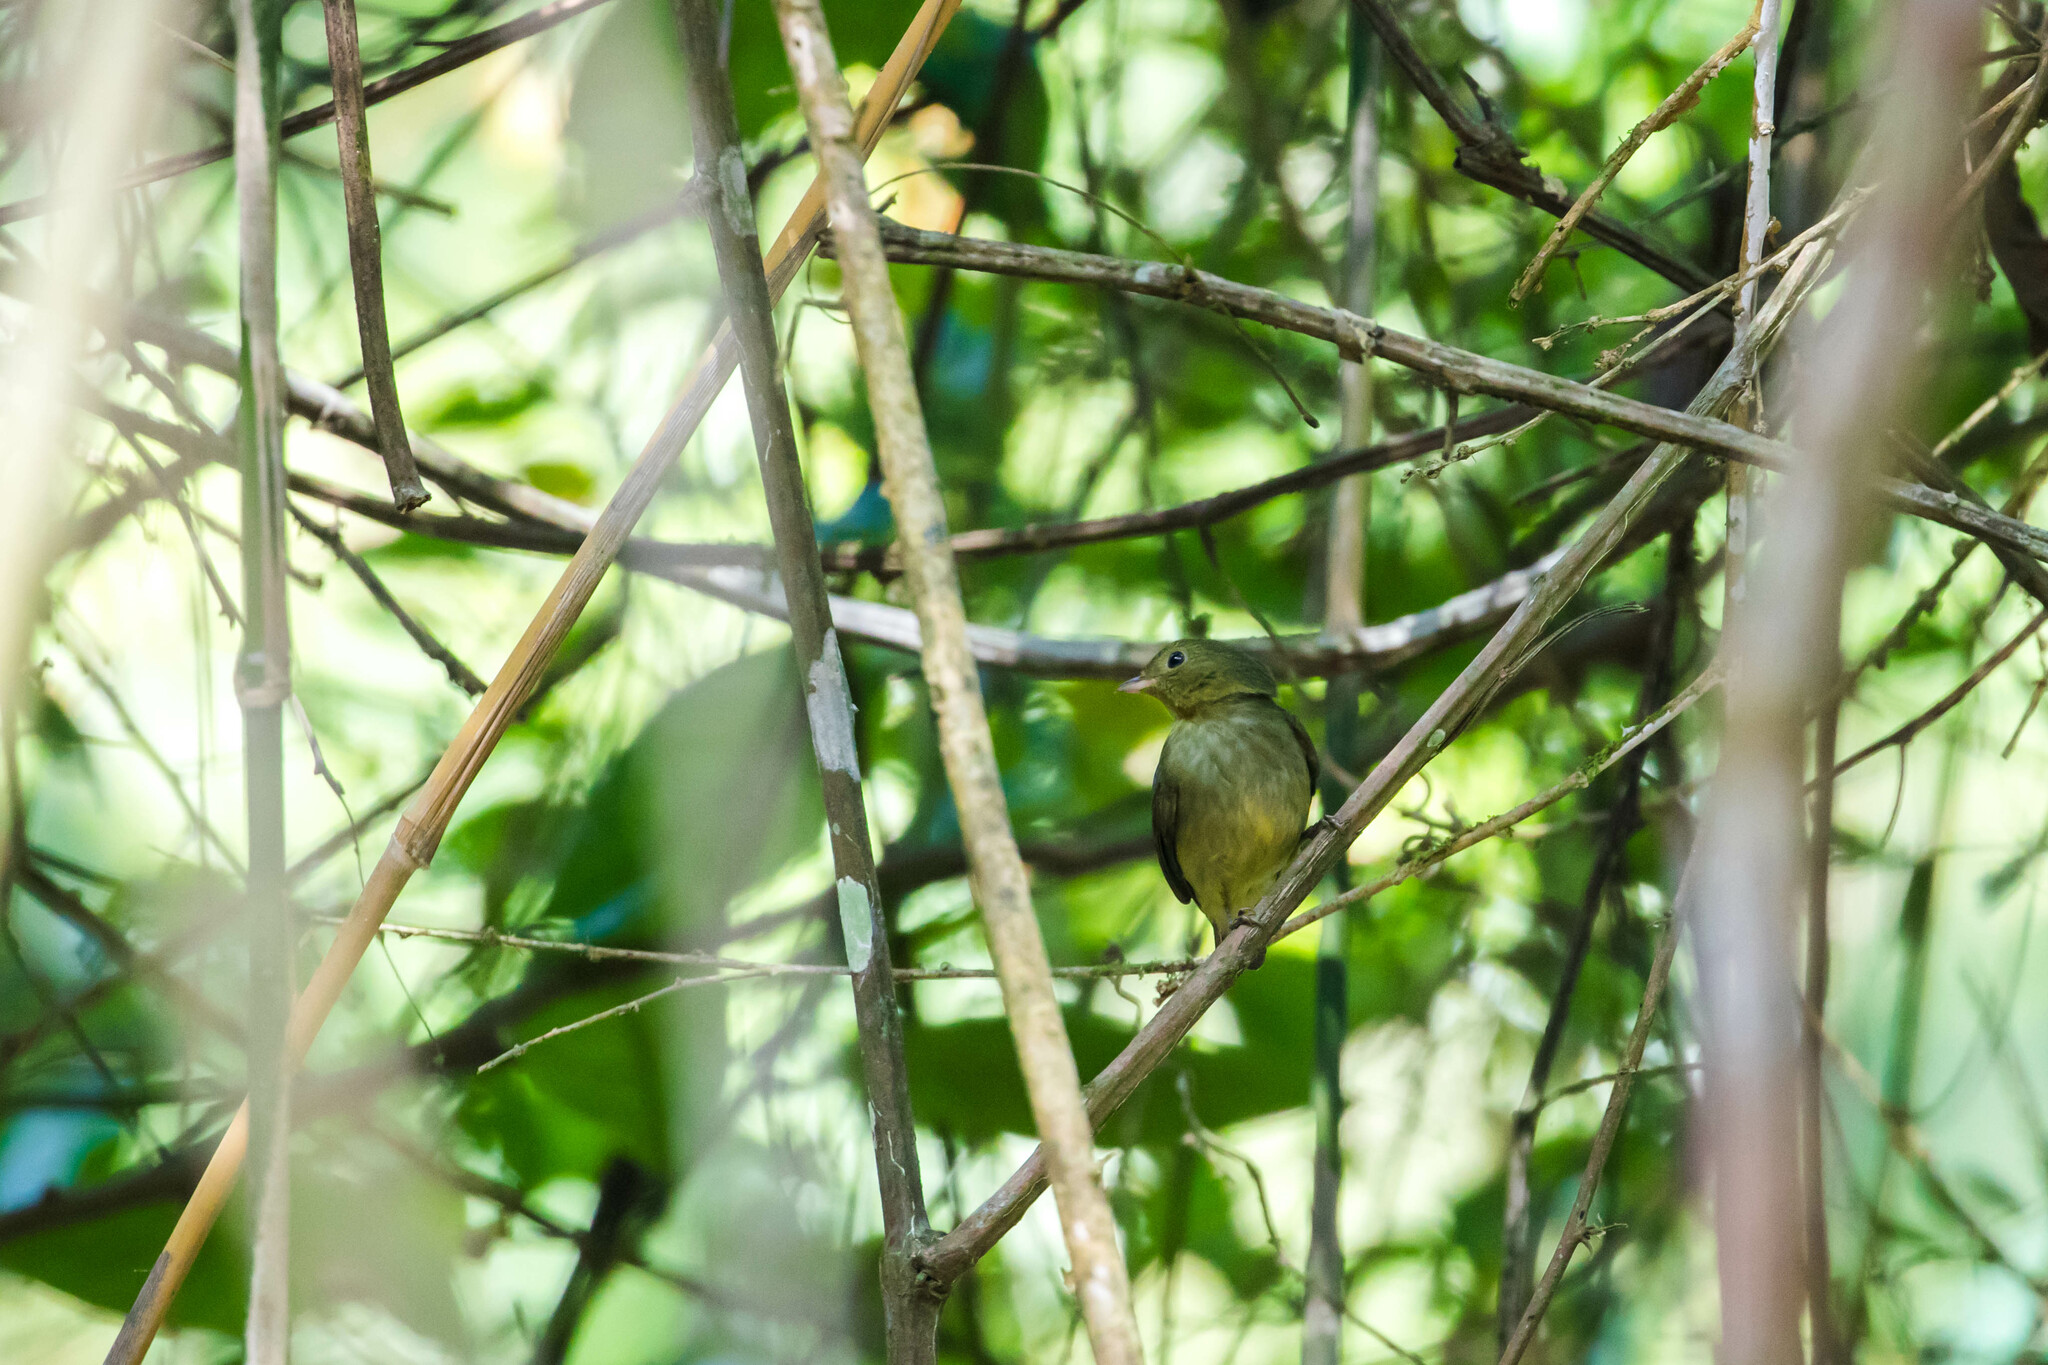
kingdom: Animalia
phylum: Chordata
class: Aves
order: Passeriformes
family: Pipridae
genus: Pipra
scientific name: Pipra mentalis
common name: Red-capped manakin
